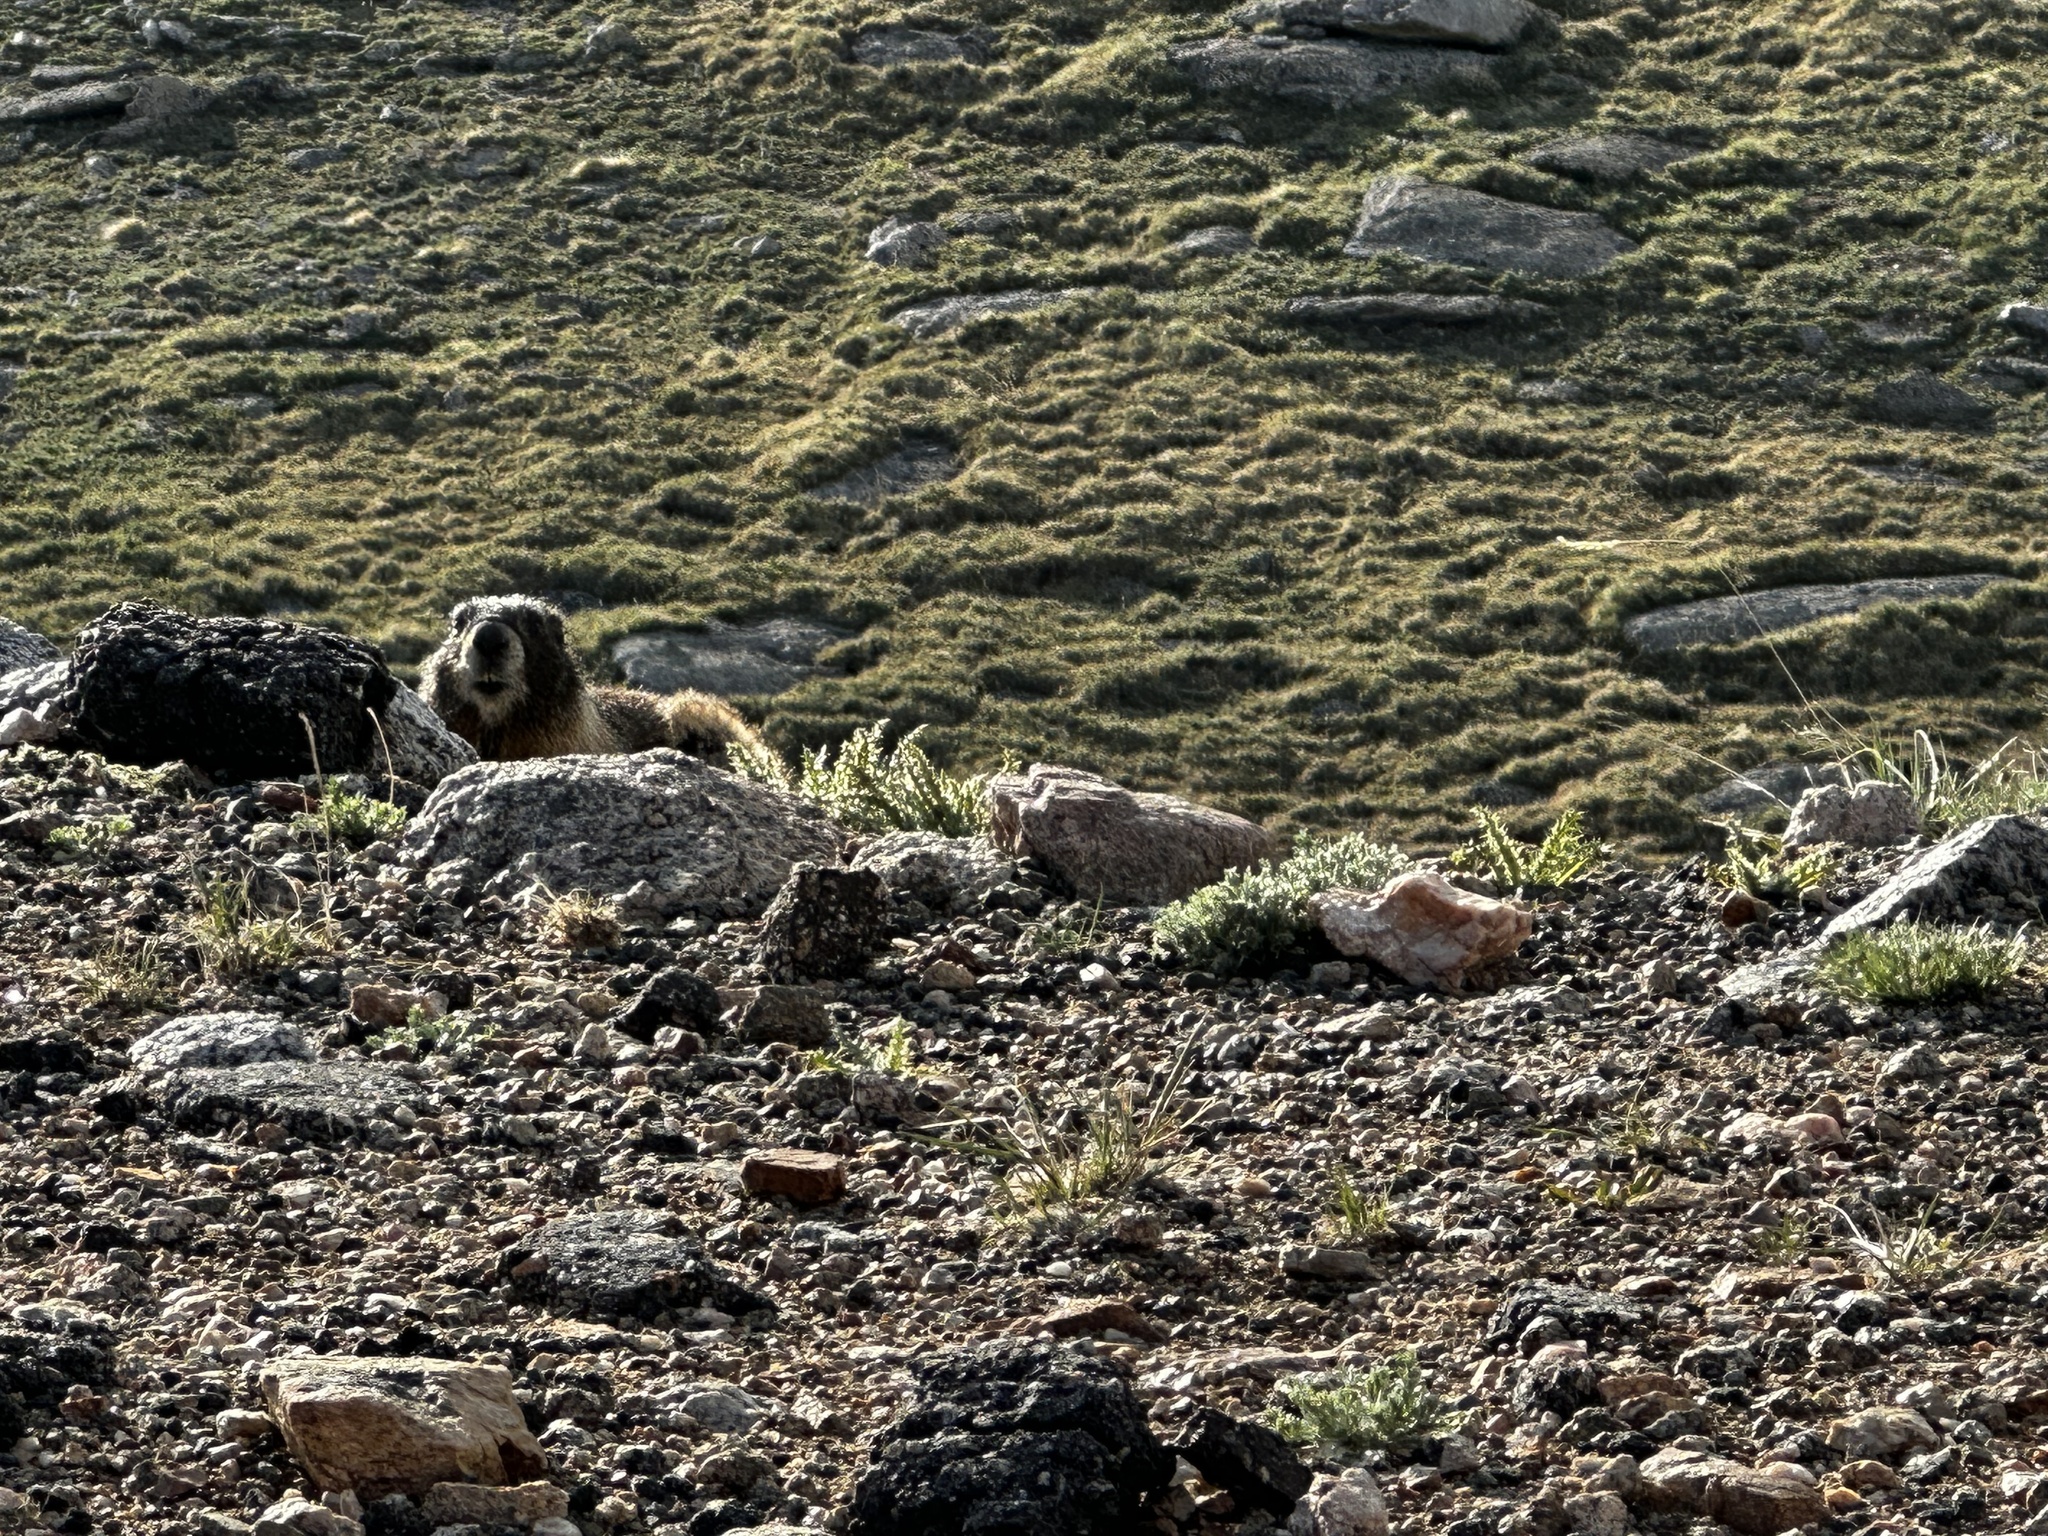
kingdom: Animalia
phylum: Chordata
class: Mammalia
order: Rodentia
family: Sciuridae
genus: Marmota
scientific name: Marmota flaviventris
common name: Yellow-bellied marmot
